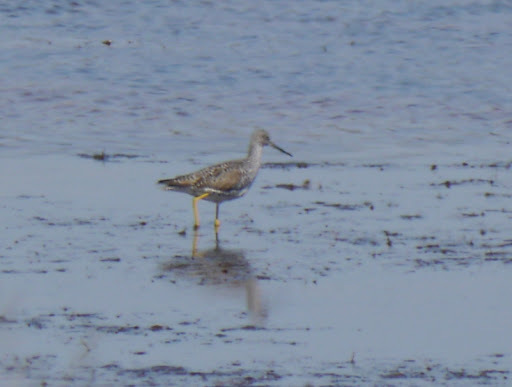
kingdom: Animalia
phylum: Chordata
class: Aves
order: Charadriiformes
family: Scolopacidae
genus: Tringa
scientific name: Tringa melanoleuca
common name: Greater yellowlegs
